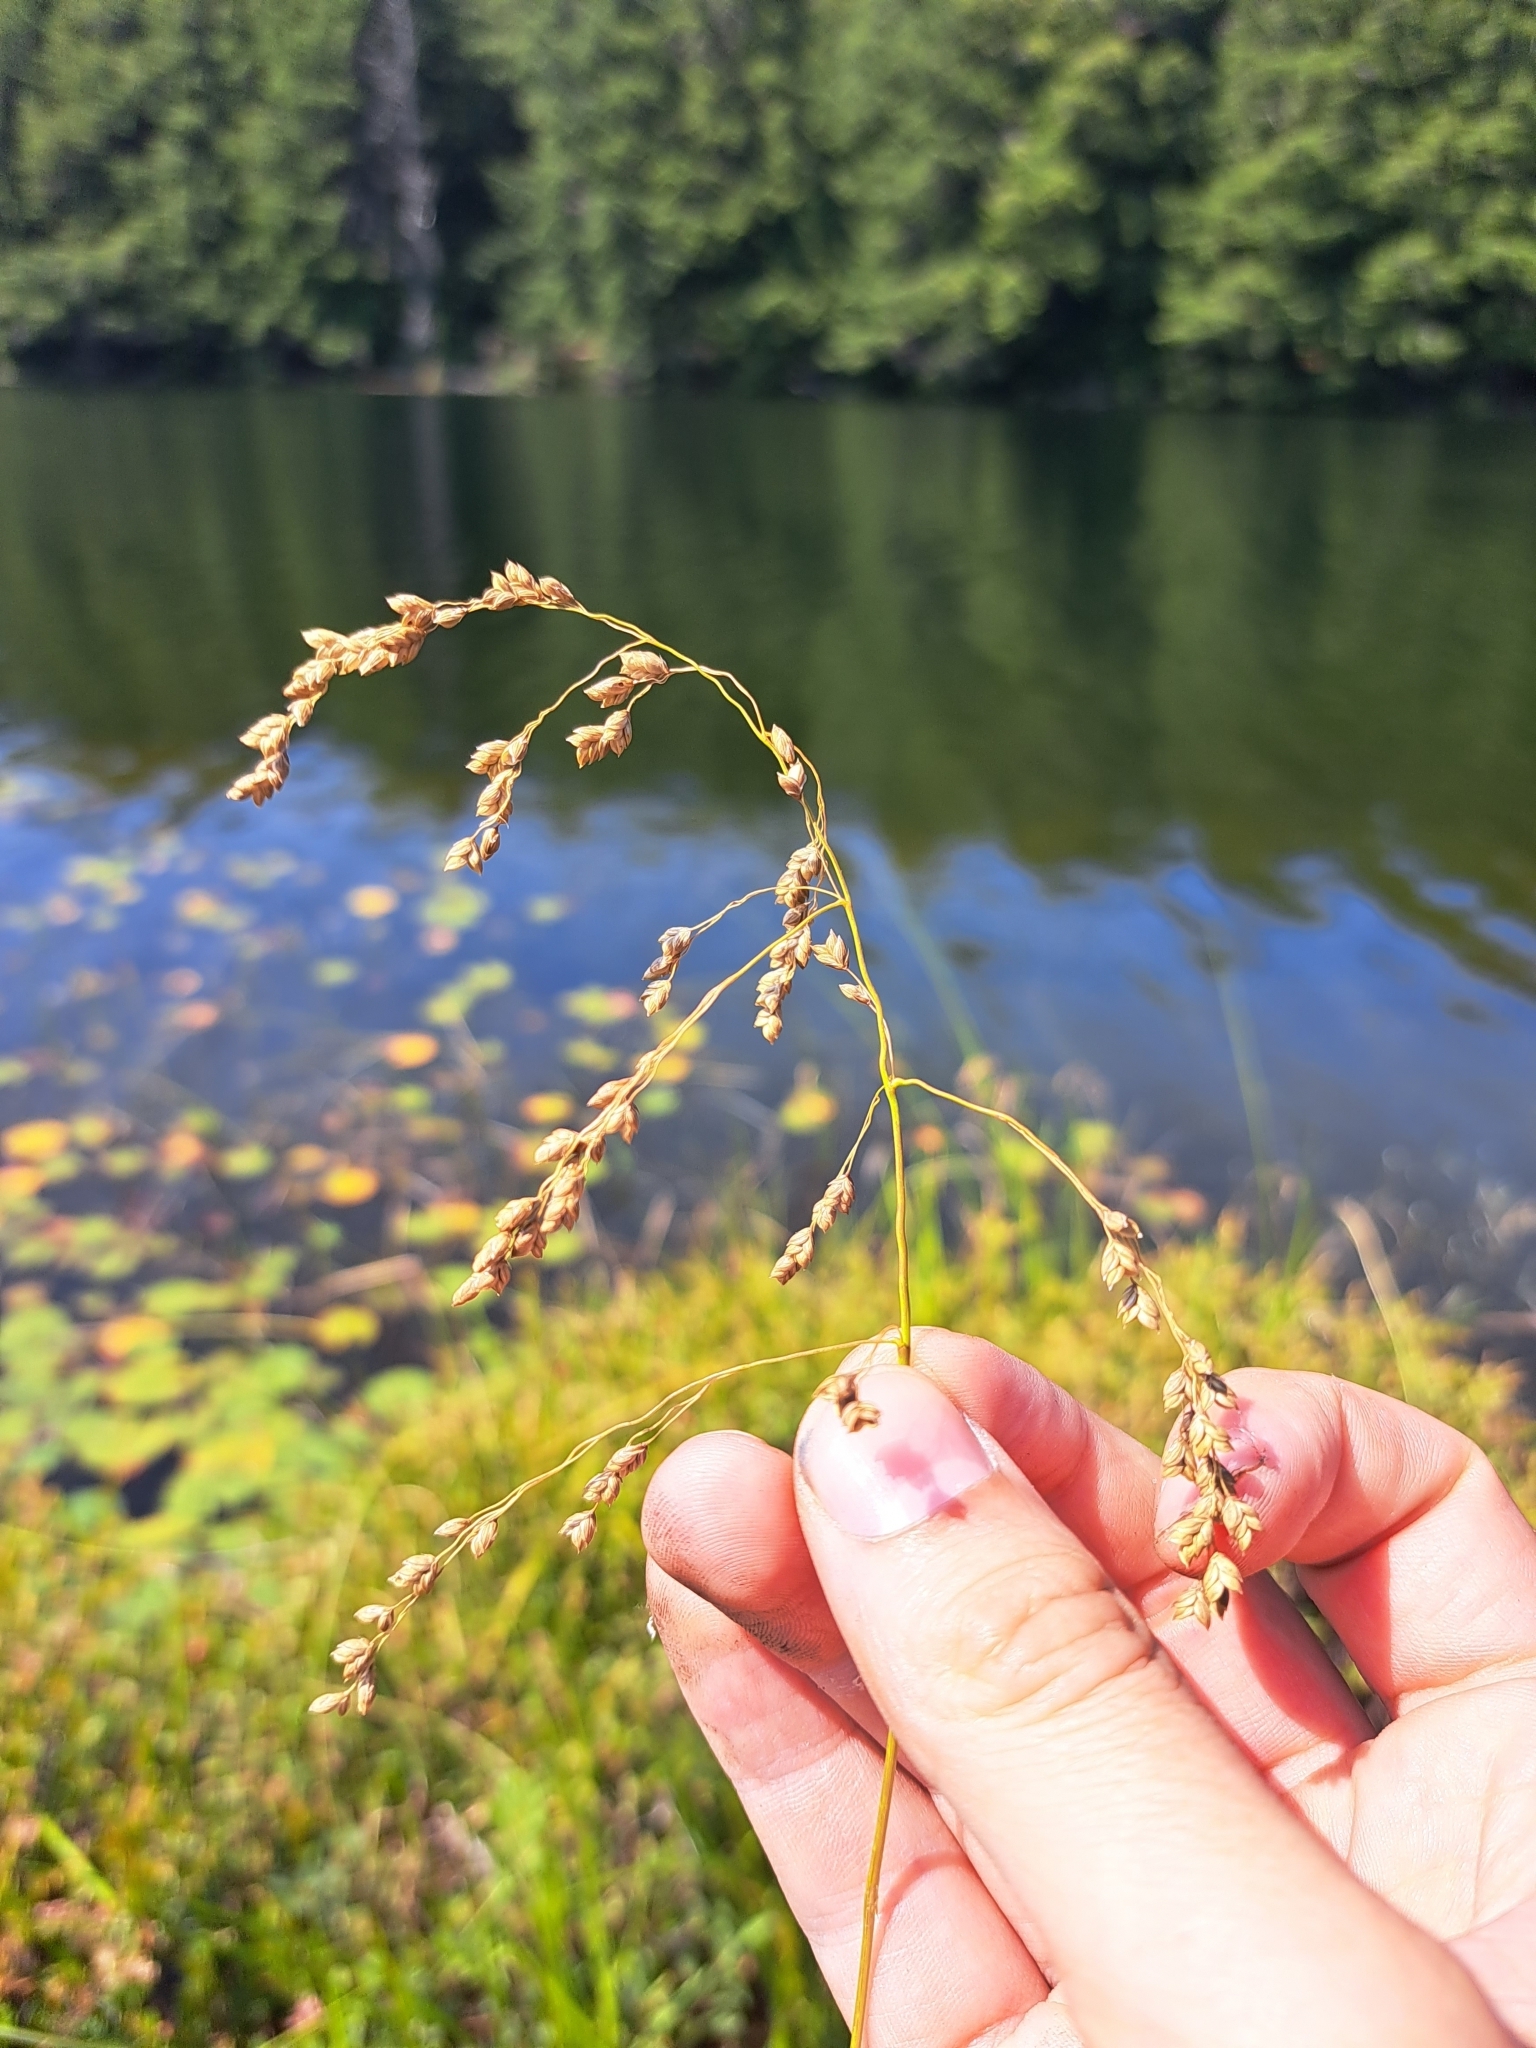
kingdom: Plantae
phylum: Tracheophyta
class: Liliopsida
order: Poales
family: Poaceae
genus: Glyceria
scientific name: Glyceria canadensis
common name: Canada mannagrass
